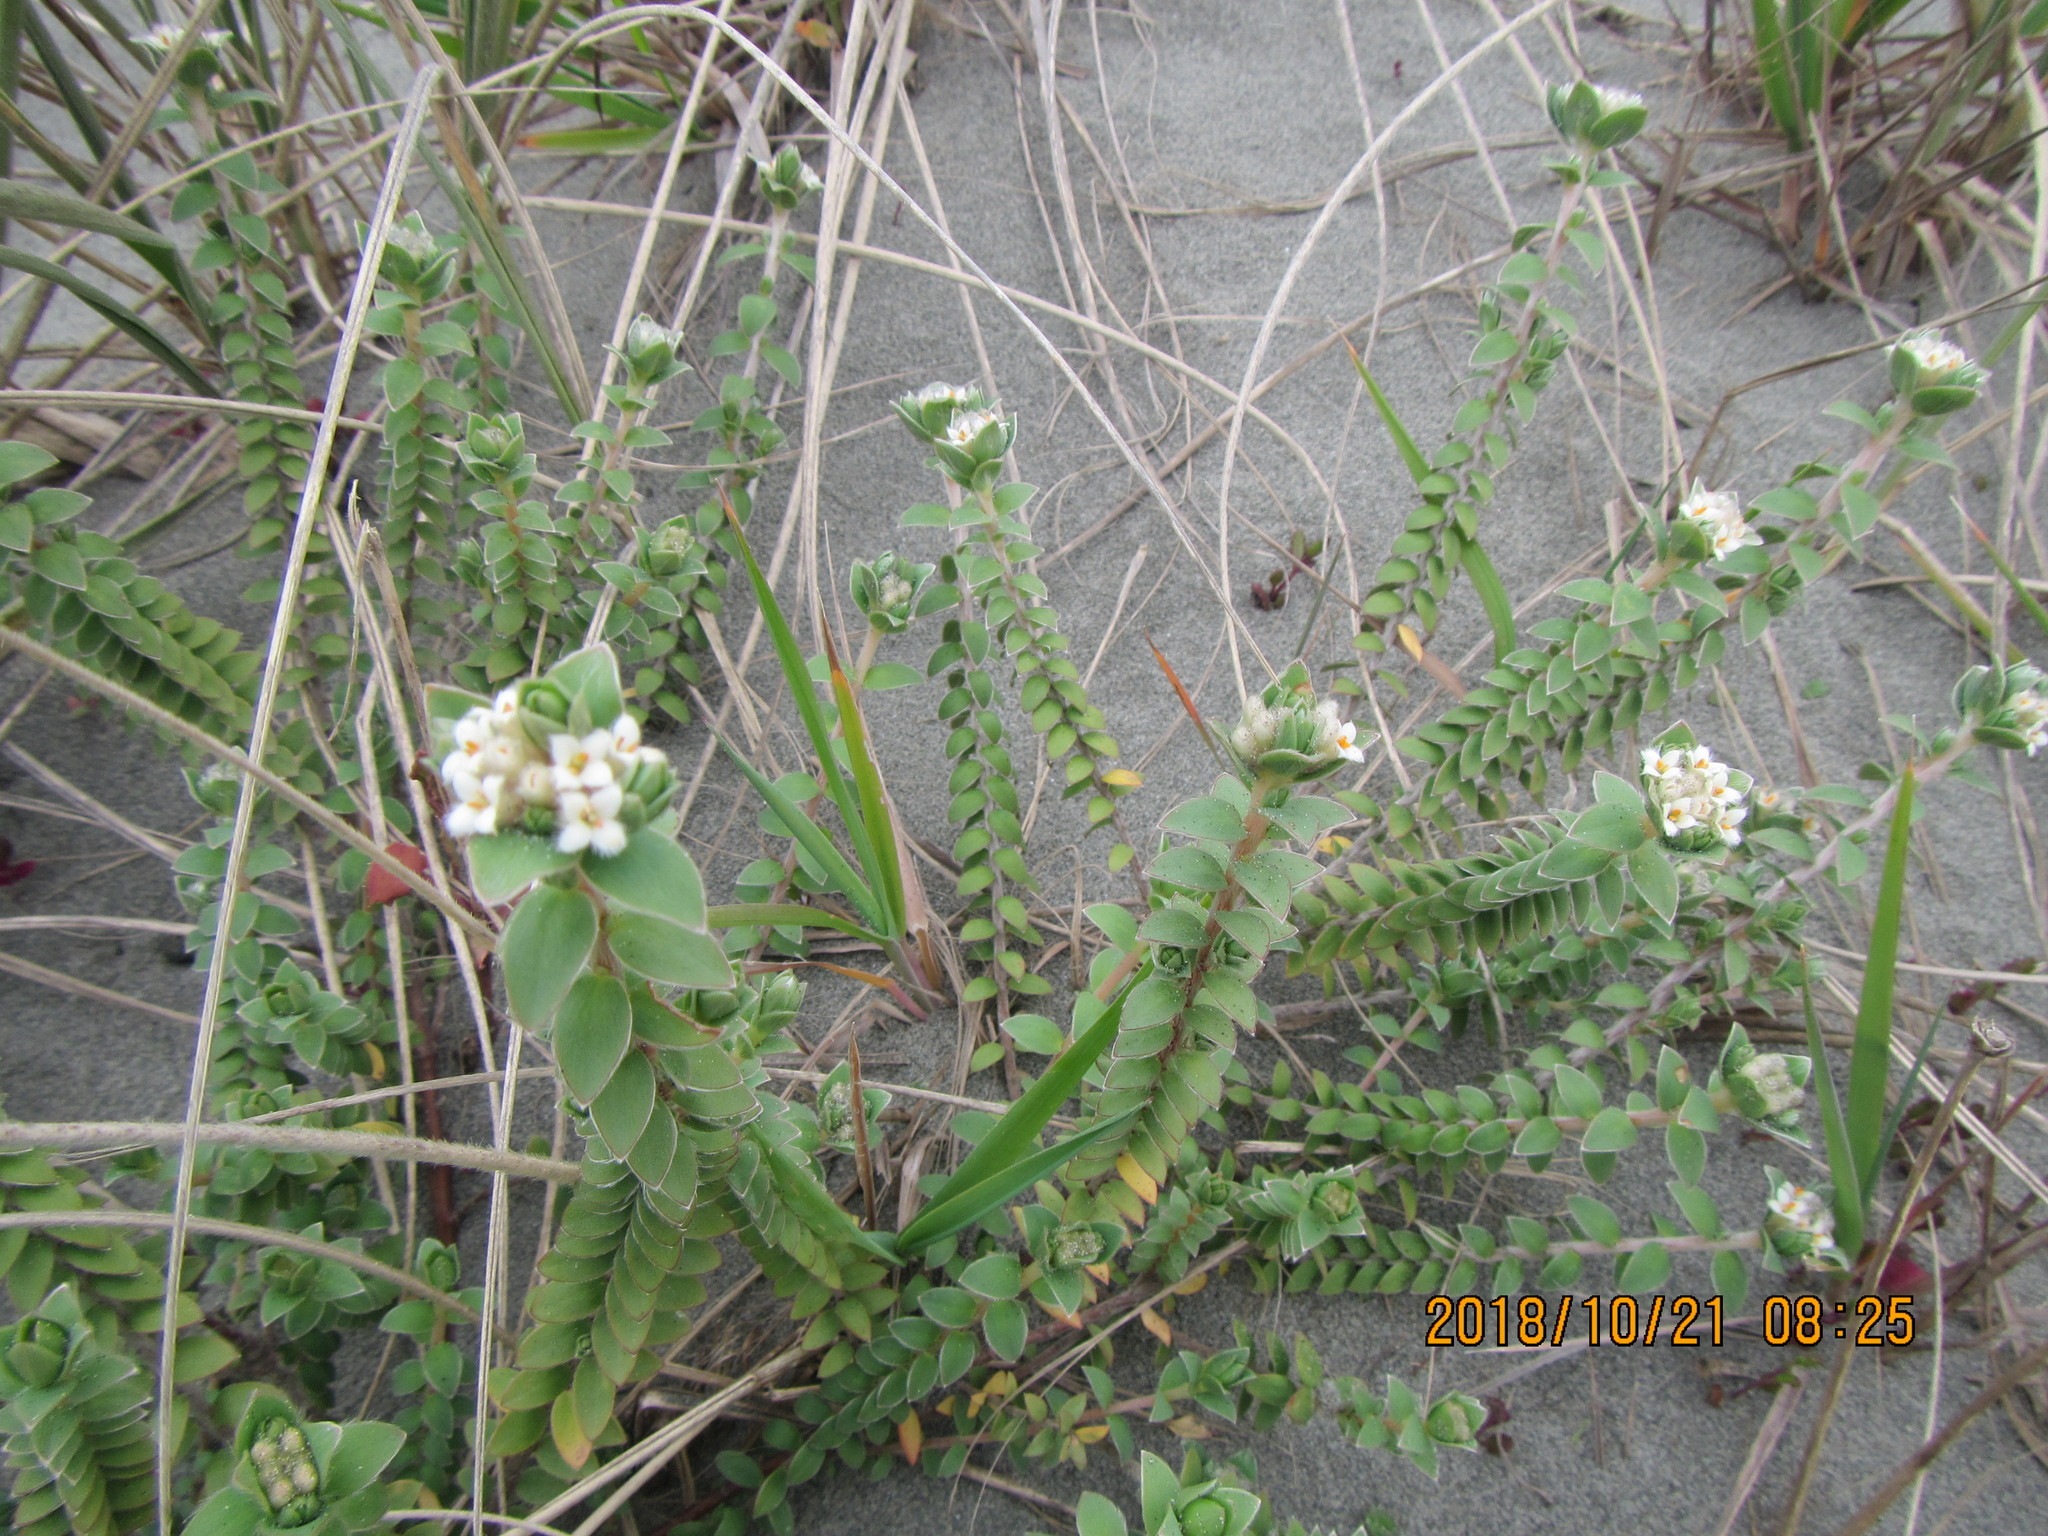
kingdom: Plantae
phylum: Tracheophyta
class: Magnoliopsida
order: Malvales
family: Thymelaeaceae
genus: Pimelea
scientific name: Pimelea villosa
